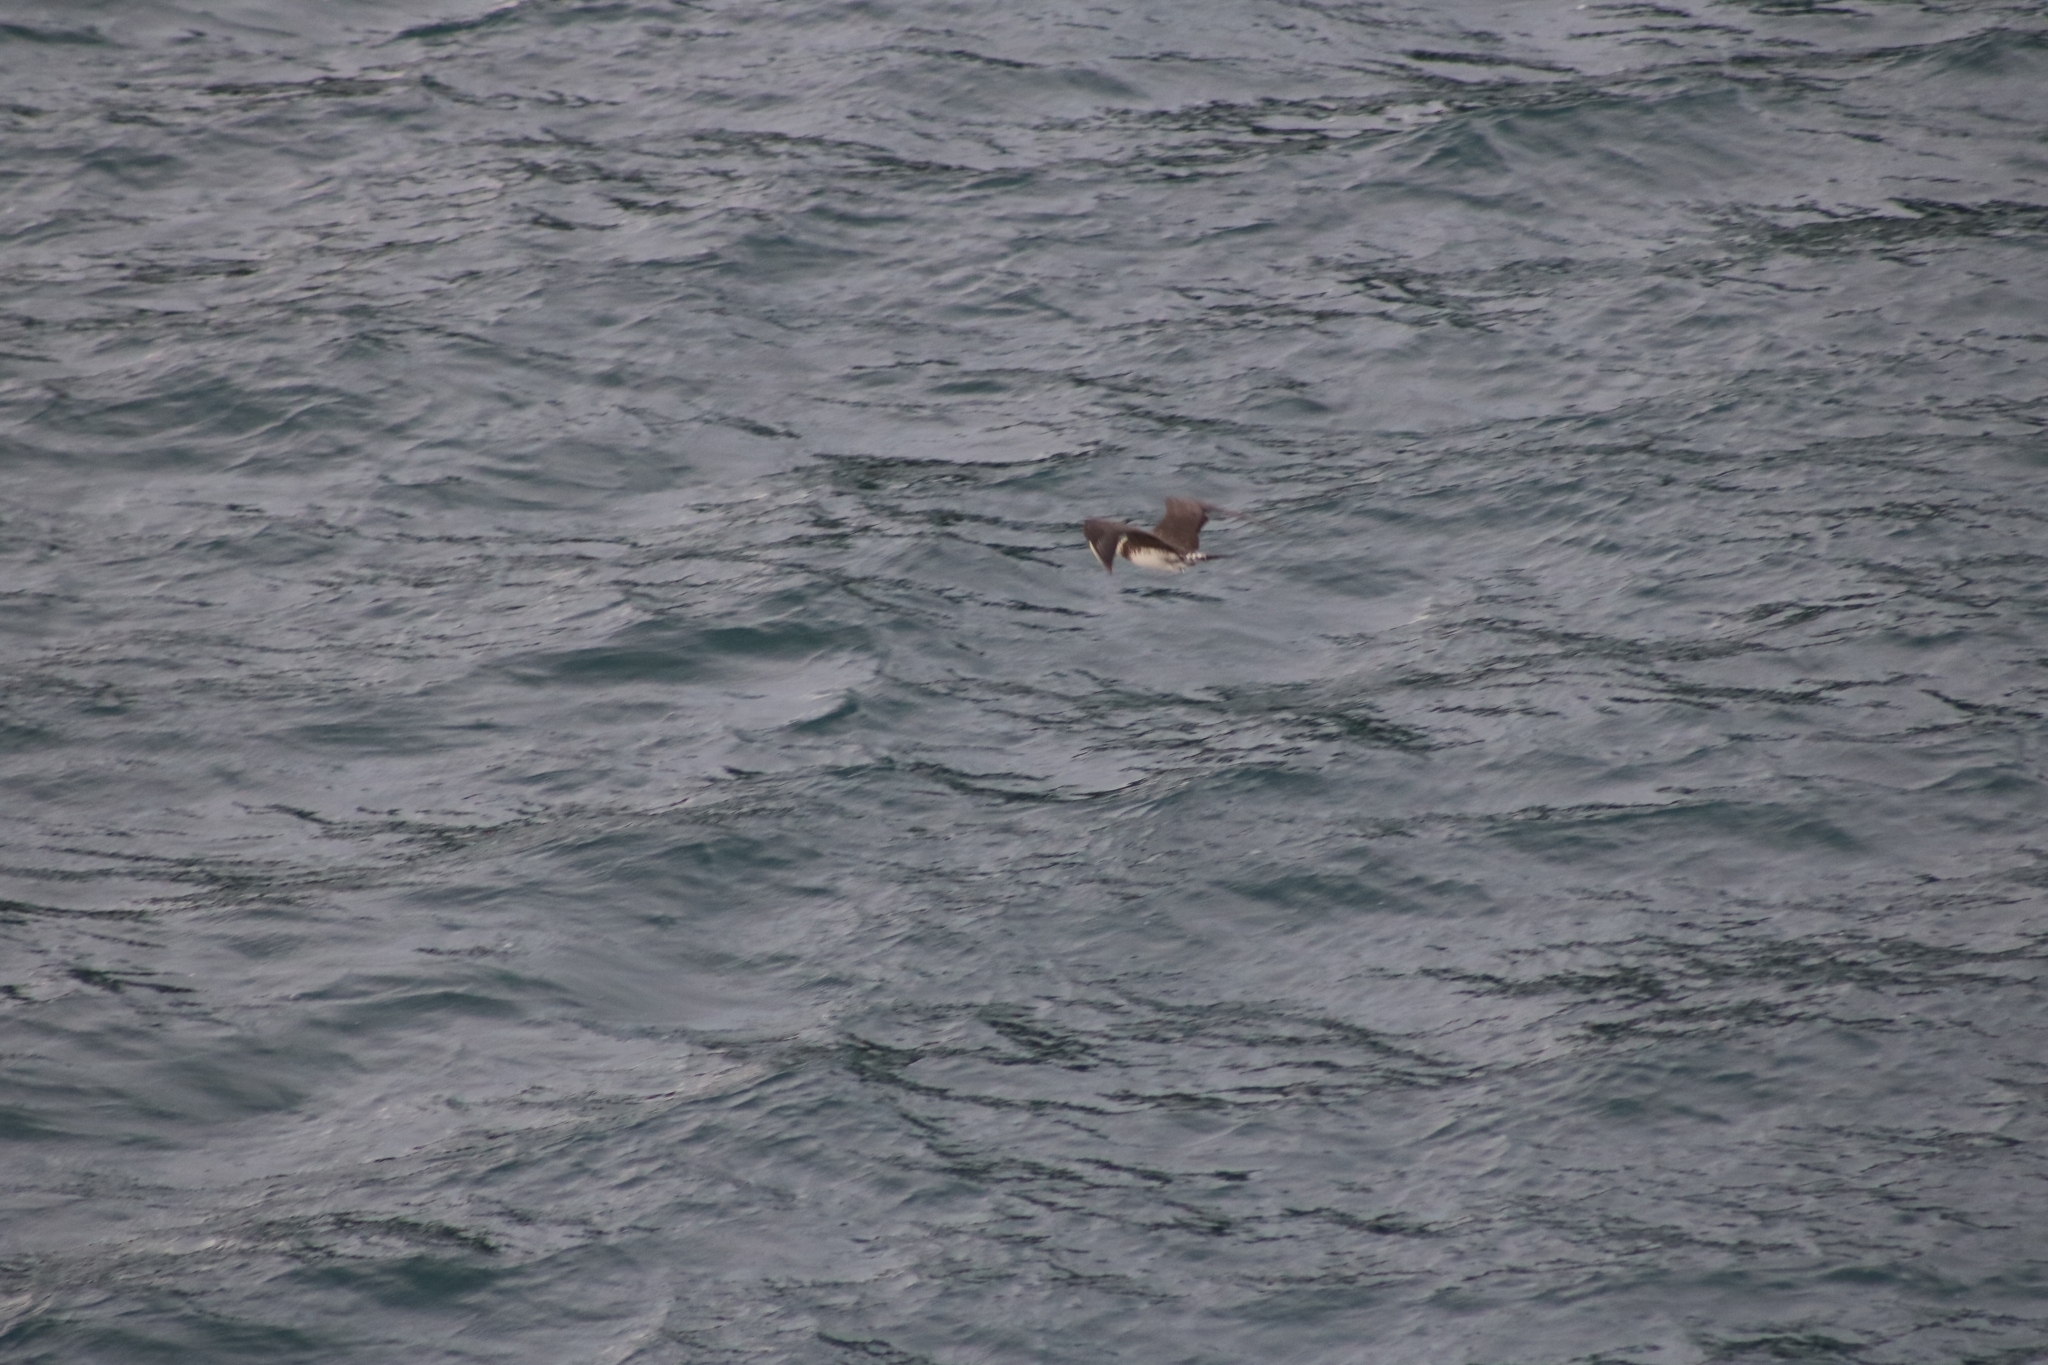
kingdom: Animalia
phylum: Chordata
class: Aves
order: Charadriiformes
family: Stercorariidae
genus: Stercorarius
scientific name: Stercorarius parasiticus
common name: Parasitic jaeger
